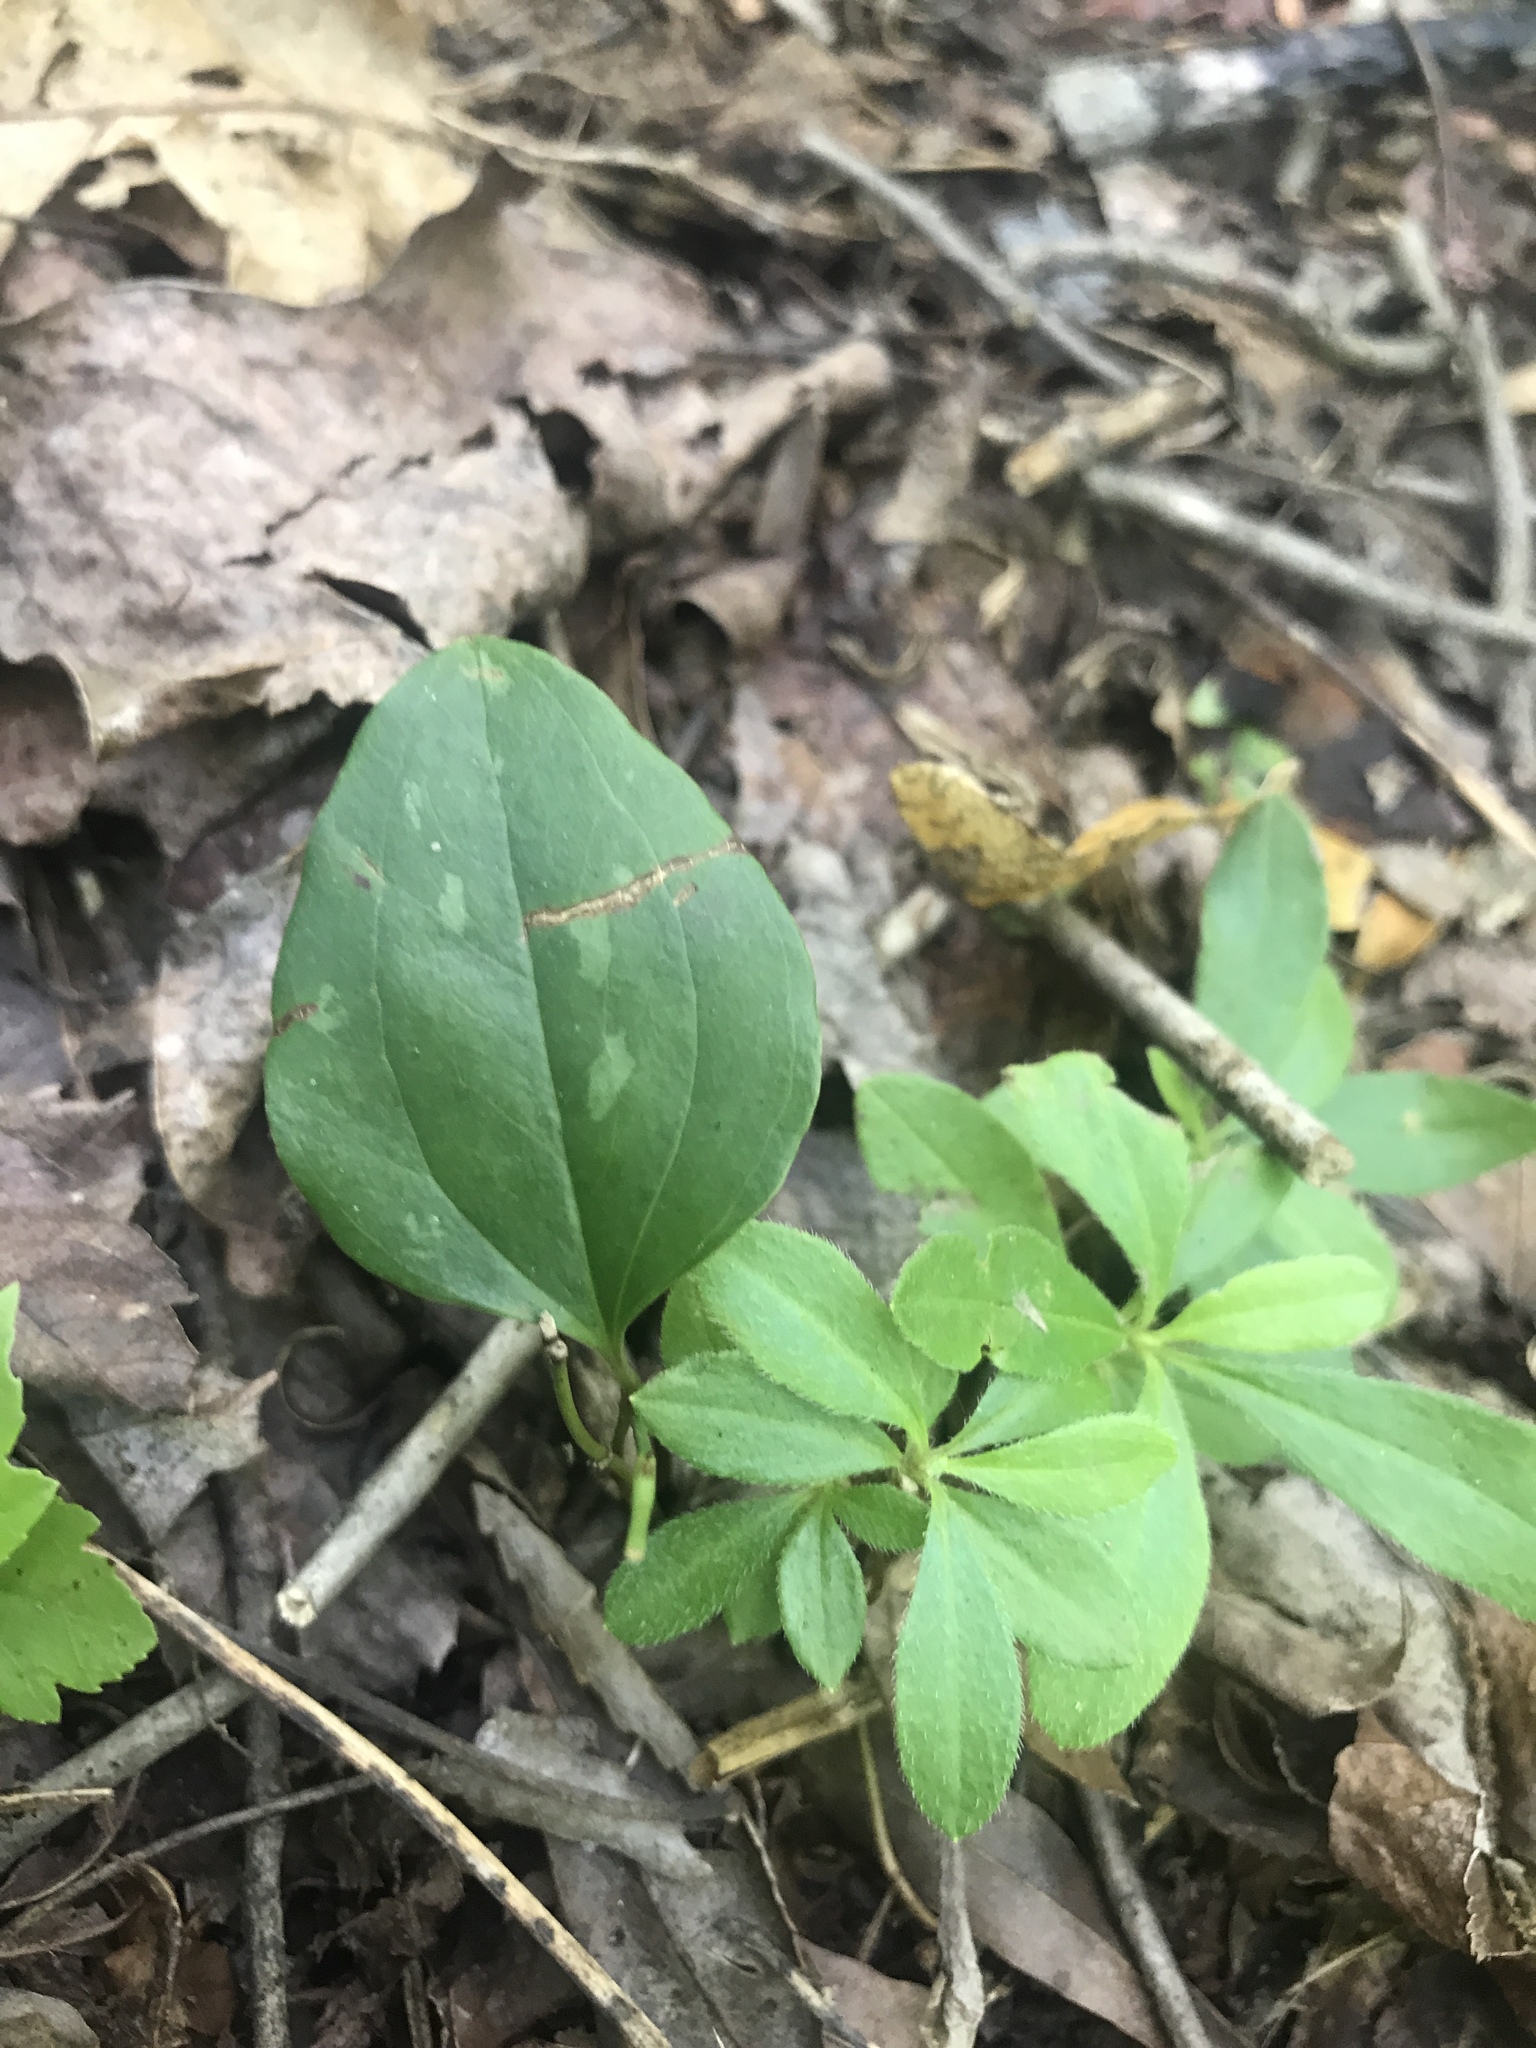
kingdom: Plantae
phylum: Tracheophyta
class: Liliopsida
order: Liliales
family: Smilacaceae
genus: Smilax
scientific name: Smilax glauca
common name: Cat greenbrier
